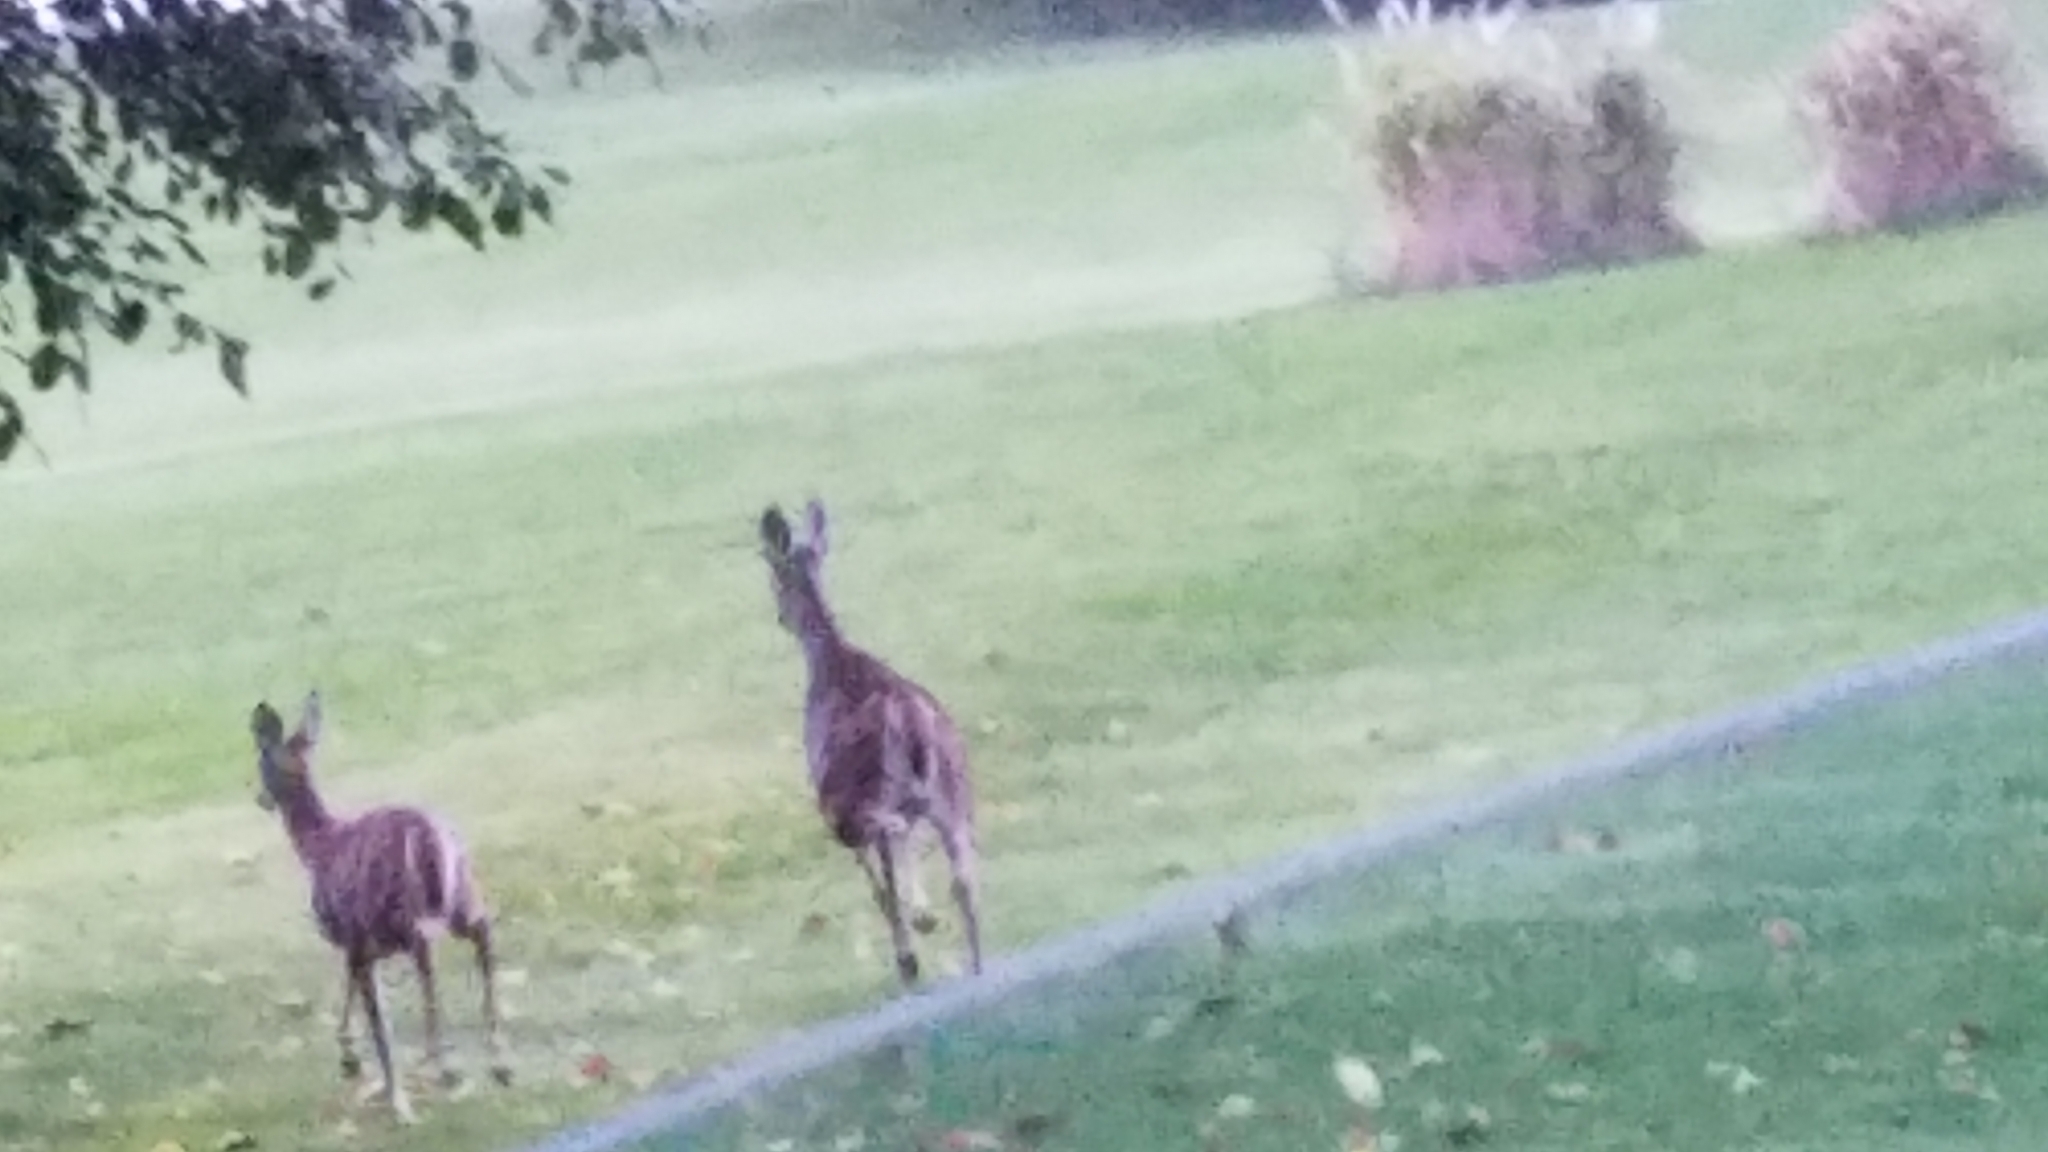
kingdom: Animalia
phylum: Chordata
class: Mammalia
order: Artiodactyla
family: Cervidae
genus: Odocoileus
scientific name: Odocoileus virginianus
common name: White-tailed deer
